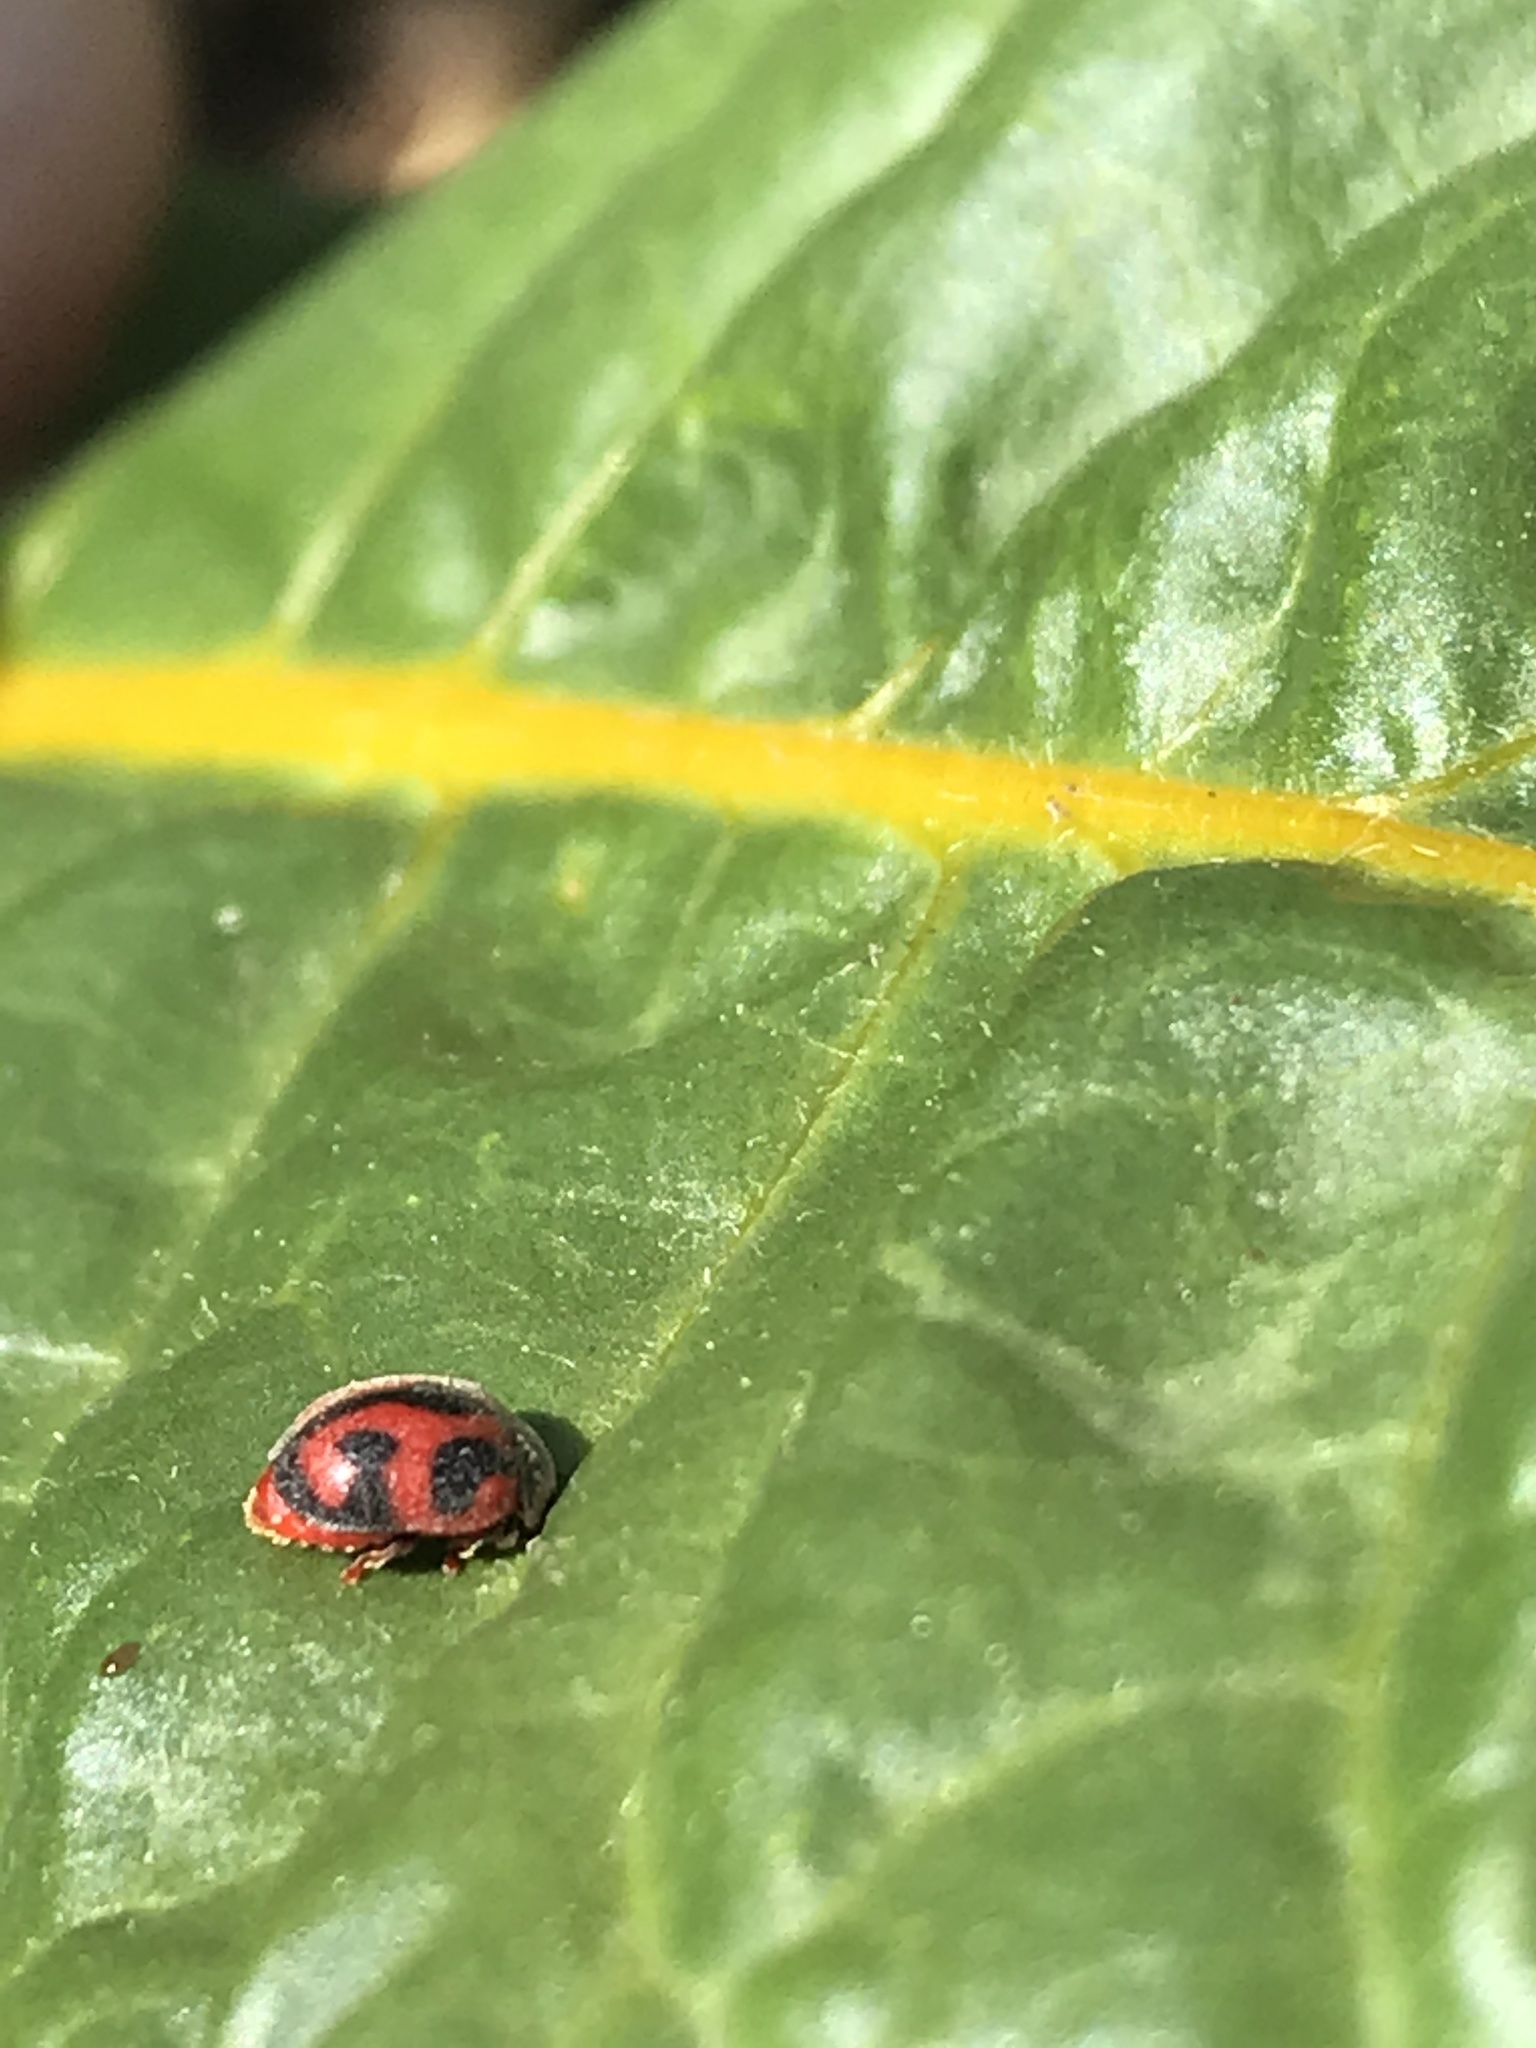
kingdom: Animalia
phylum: Arthropoda
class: Insecta
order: Coleoptera
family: Coccinellidae
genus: Novius
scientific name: Novius cardinalis
